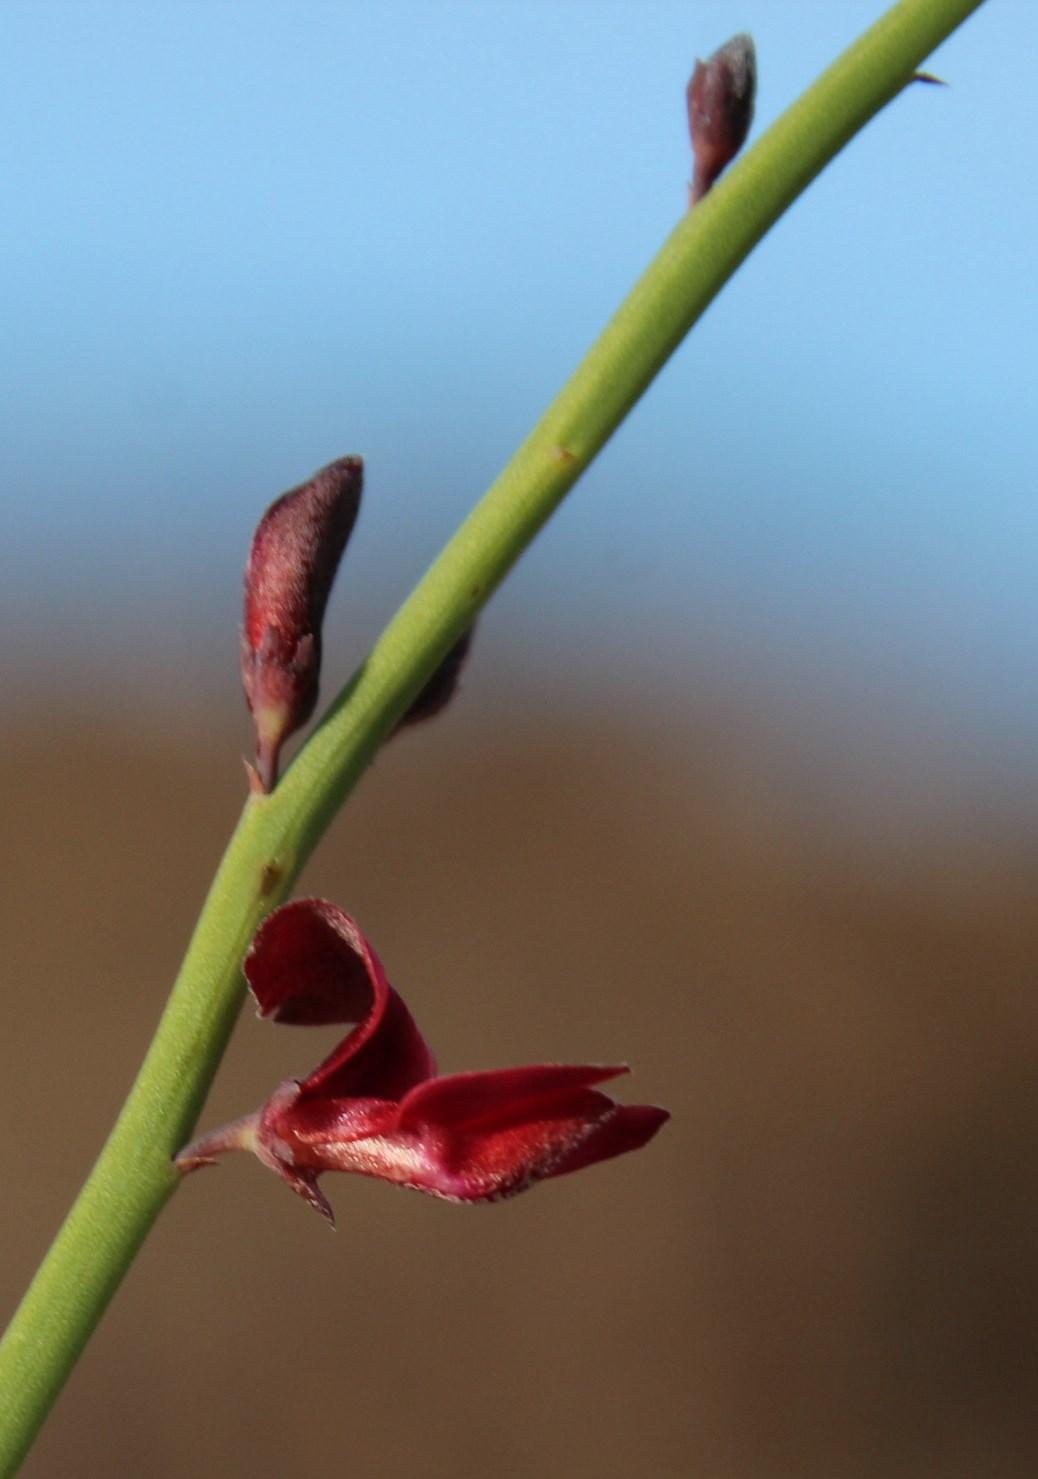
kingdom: Plantae
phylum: Tracheophyta
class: Magnoliopsida
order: Fabales
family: Fabaceae
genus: Indigofera
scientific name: Indigofera gifbergensis
